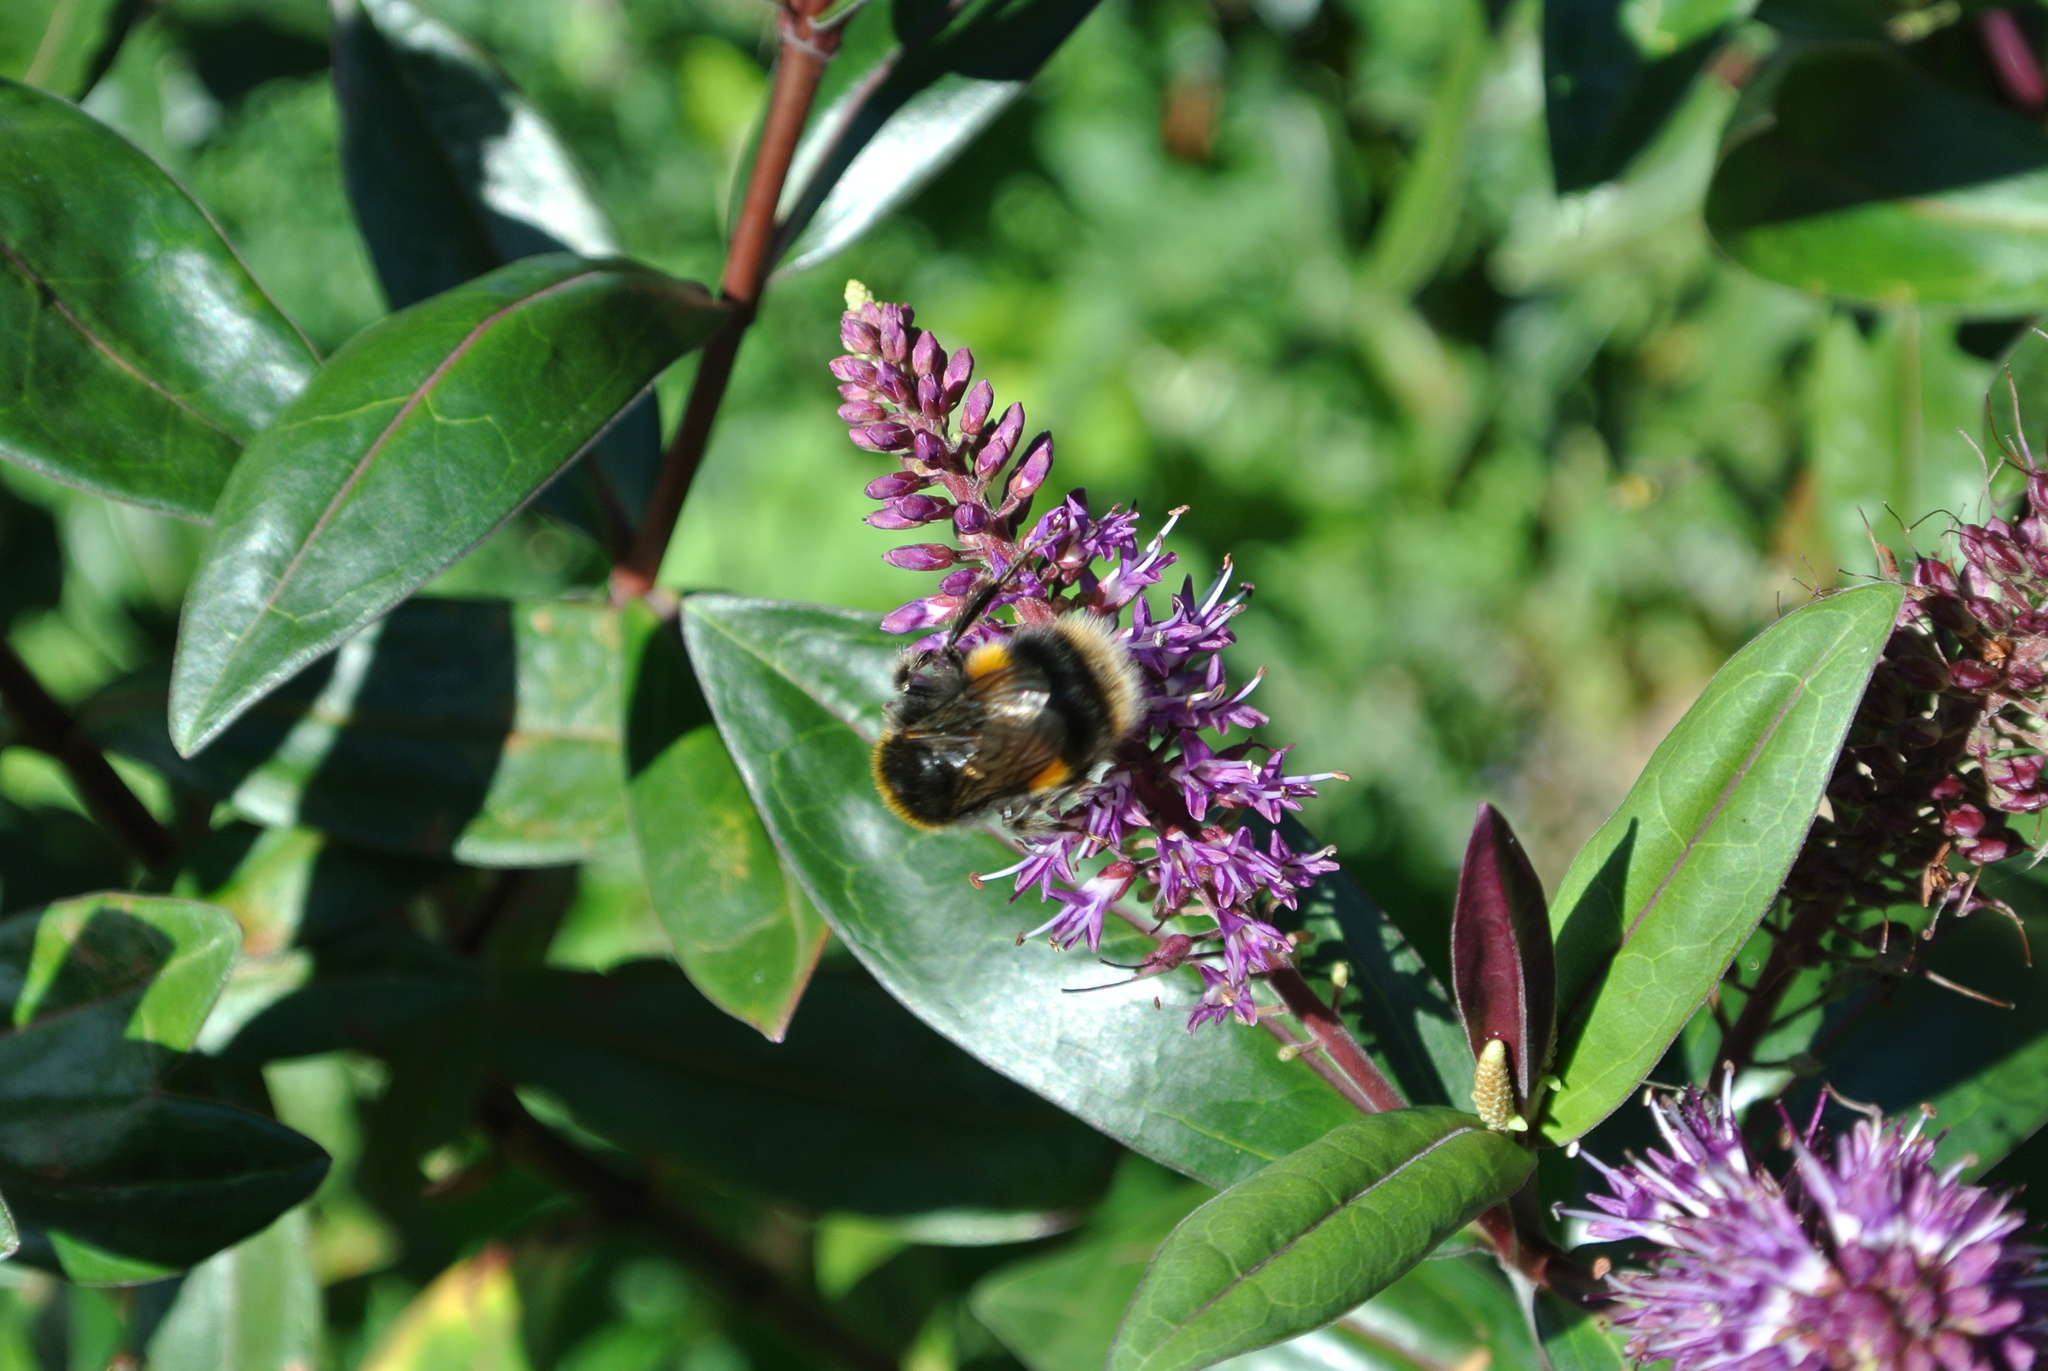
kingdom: Animalia
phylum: Arthropoda
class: Insecta
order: Hymenoptera
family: Apidae
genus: Bombus
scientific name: Bombus terrestris
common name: Buff-tailed bumblebee
